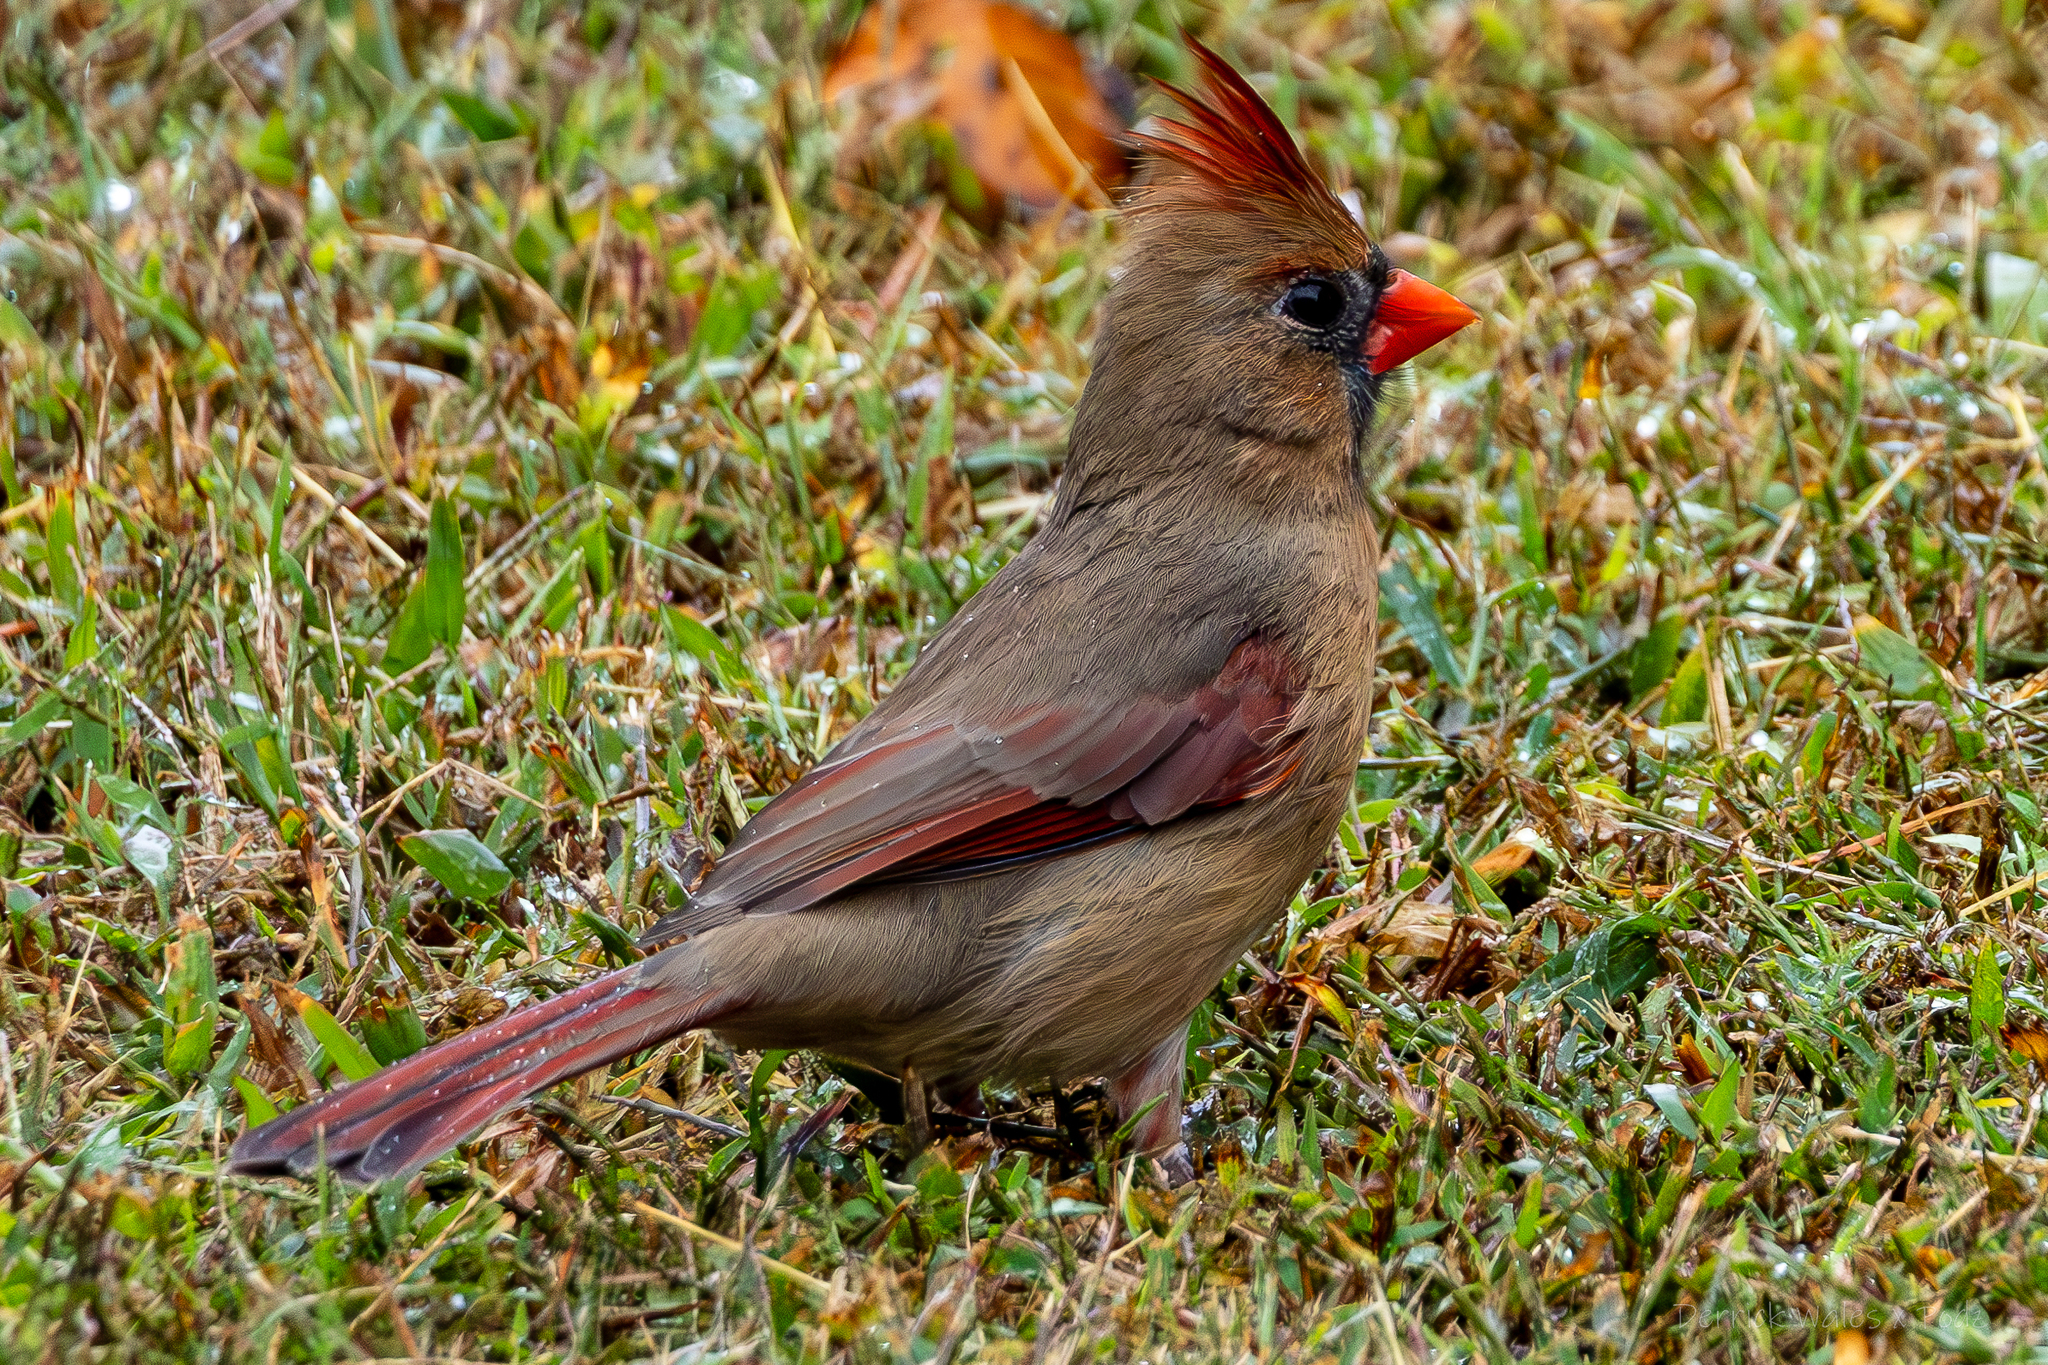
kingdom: Animalia
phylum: Chordata
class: Aves
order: Passeriformes
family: Cardinalidae
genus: Cardinalis
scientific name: Cardinalis cardinalis
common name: Northern cardinal
